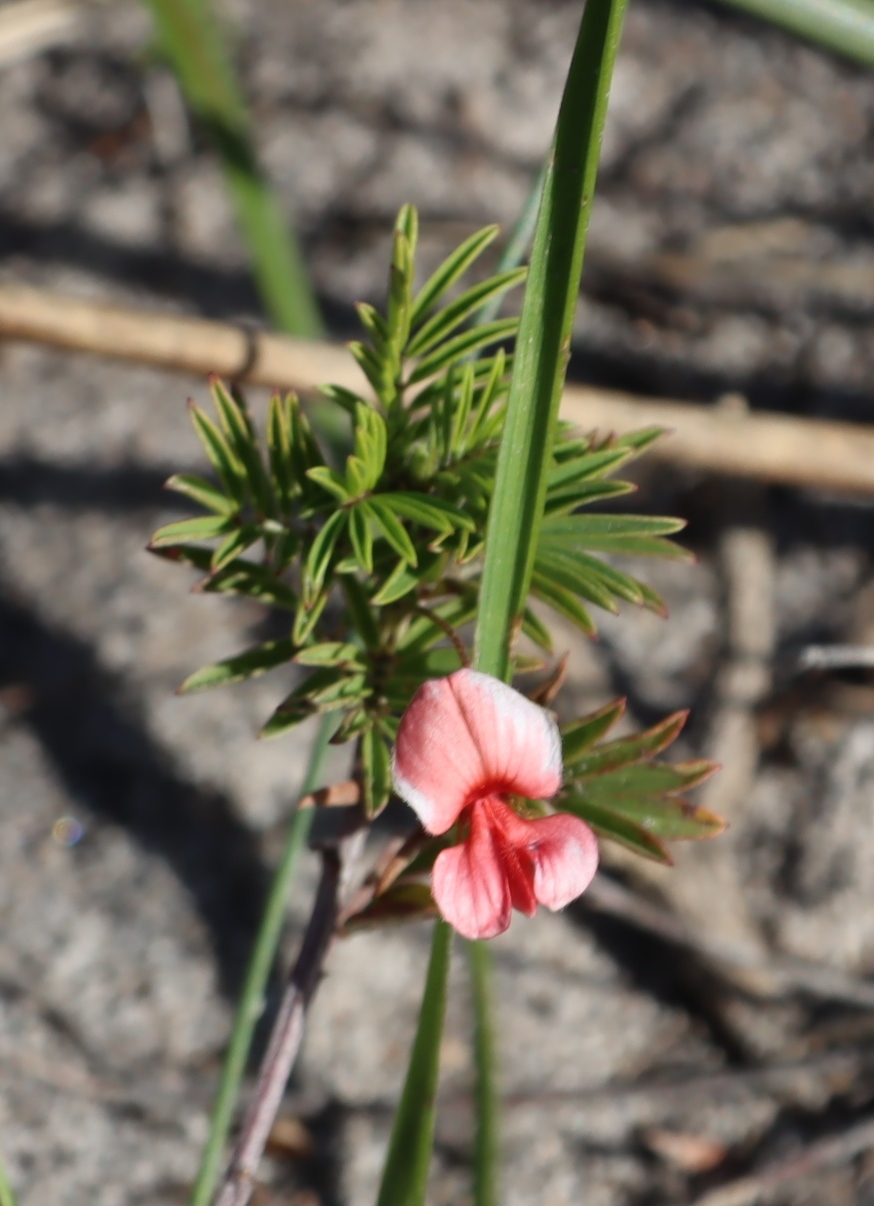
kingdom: Plantae
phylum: Tracheophyta
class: Magnoliopsida
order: Fabales
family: Fabaceae
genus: Indigofera
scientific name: Indigofera verrucosa
